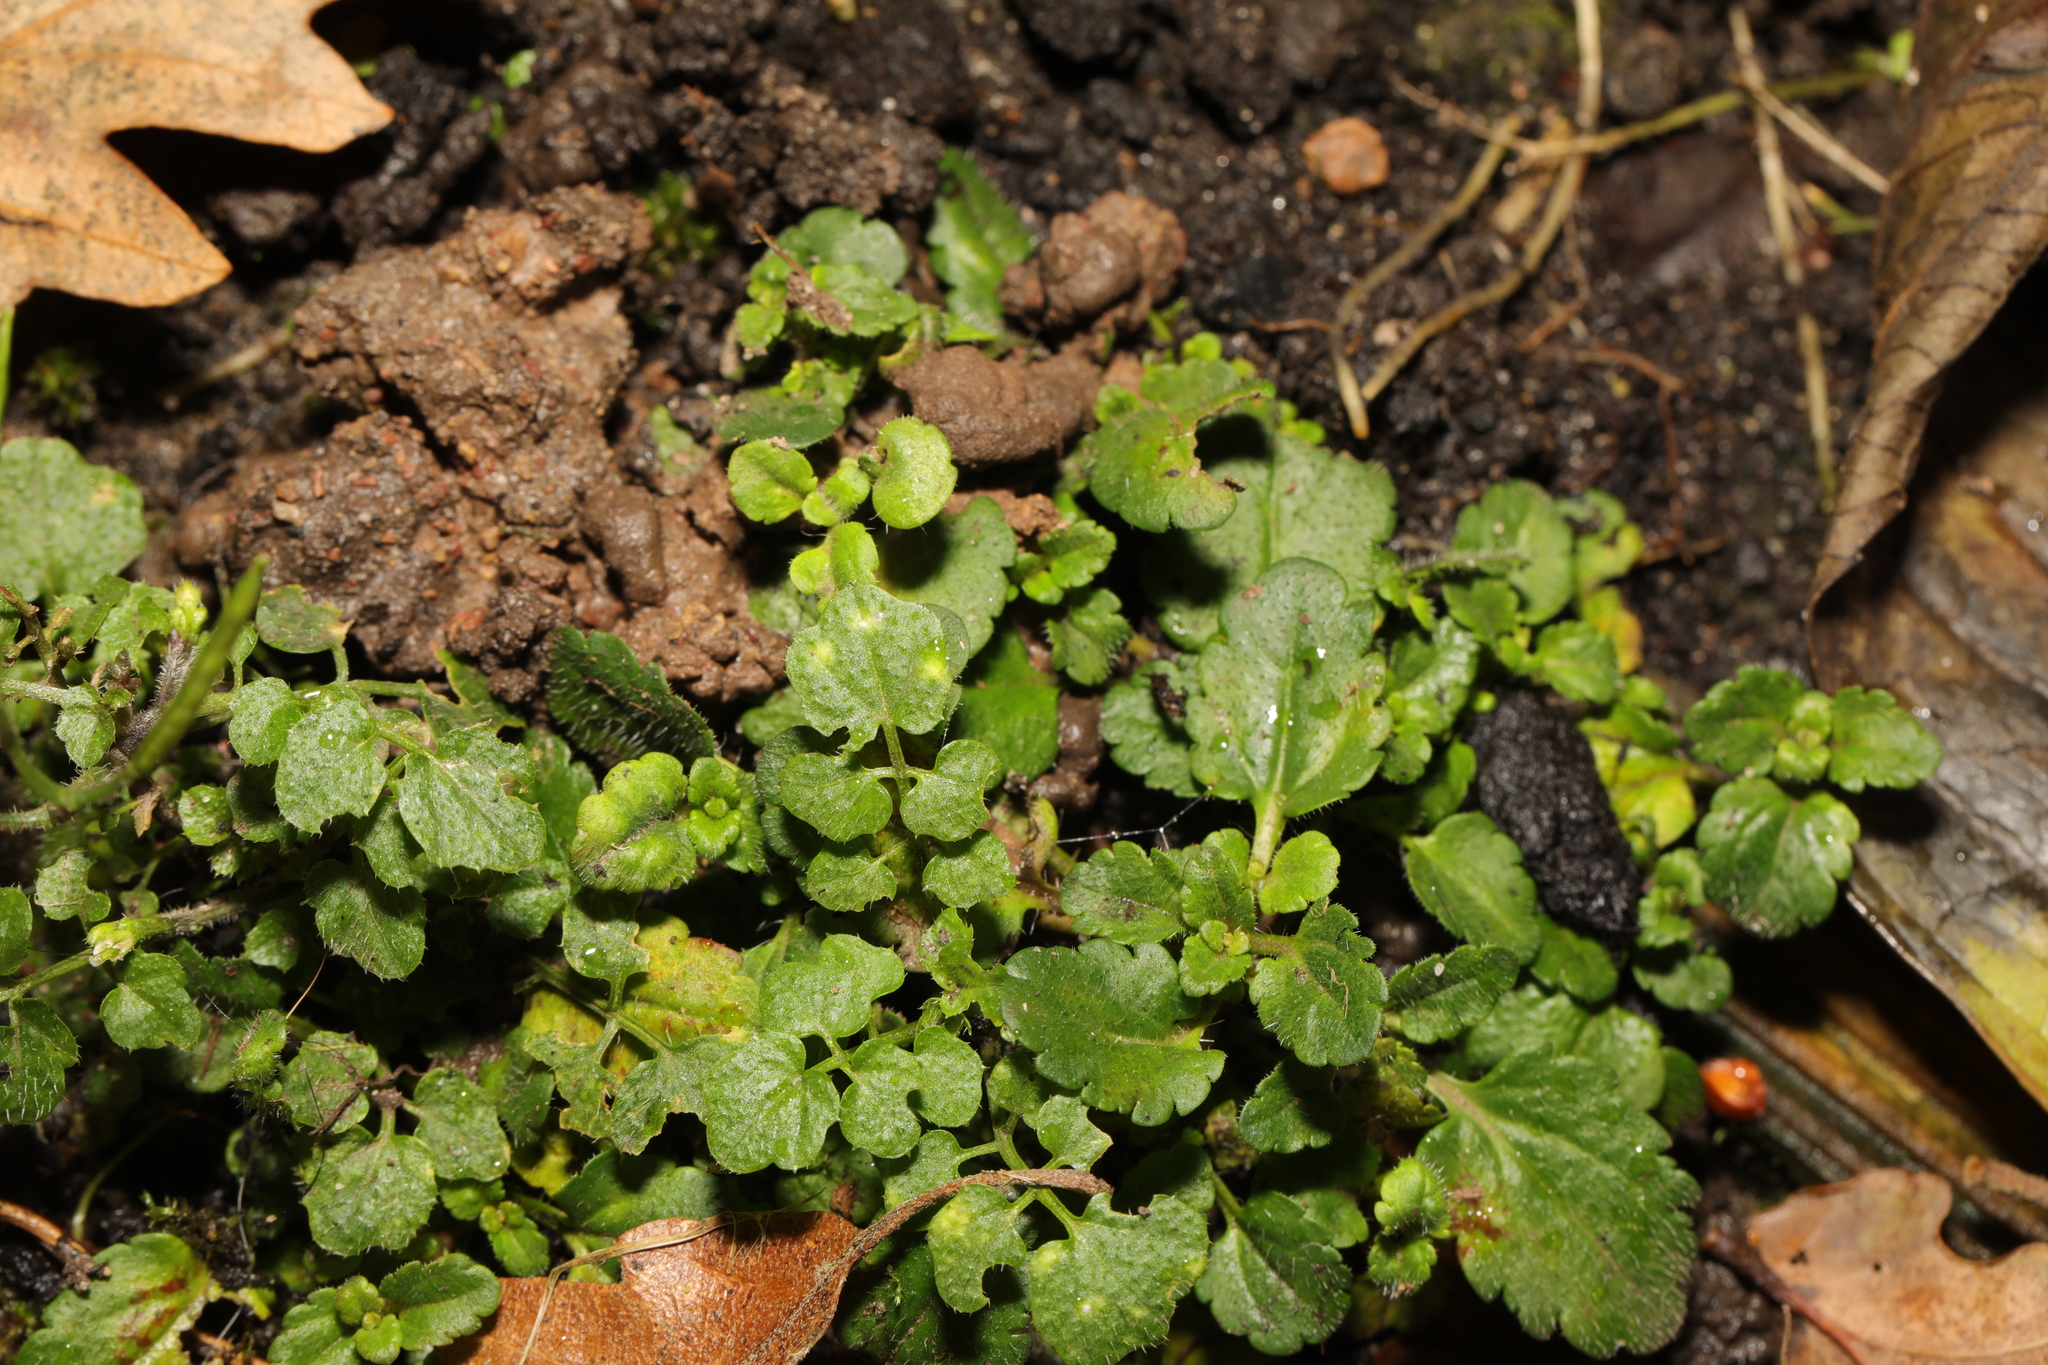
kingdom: Plantae
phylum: Tracheophyta
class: Magnoliopsida
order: Brassicales
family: Brassicaceae
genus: Cardamine
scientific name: Cardamine flexuosa
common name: Woodland bittercress
